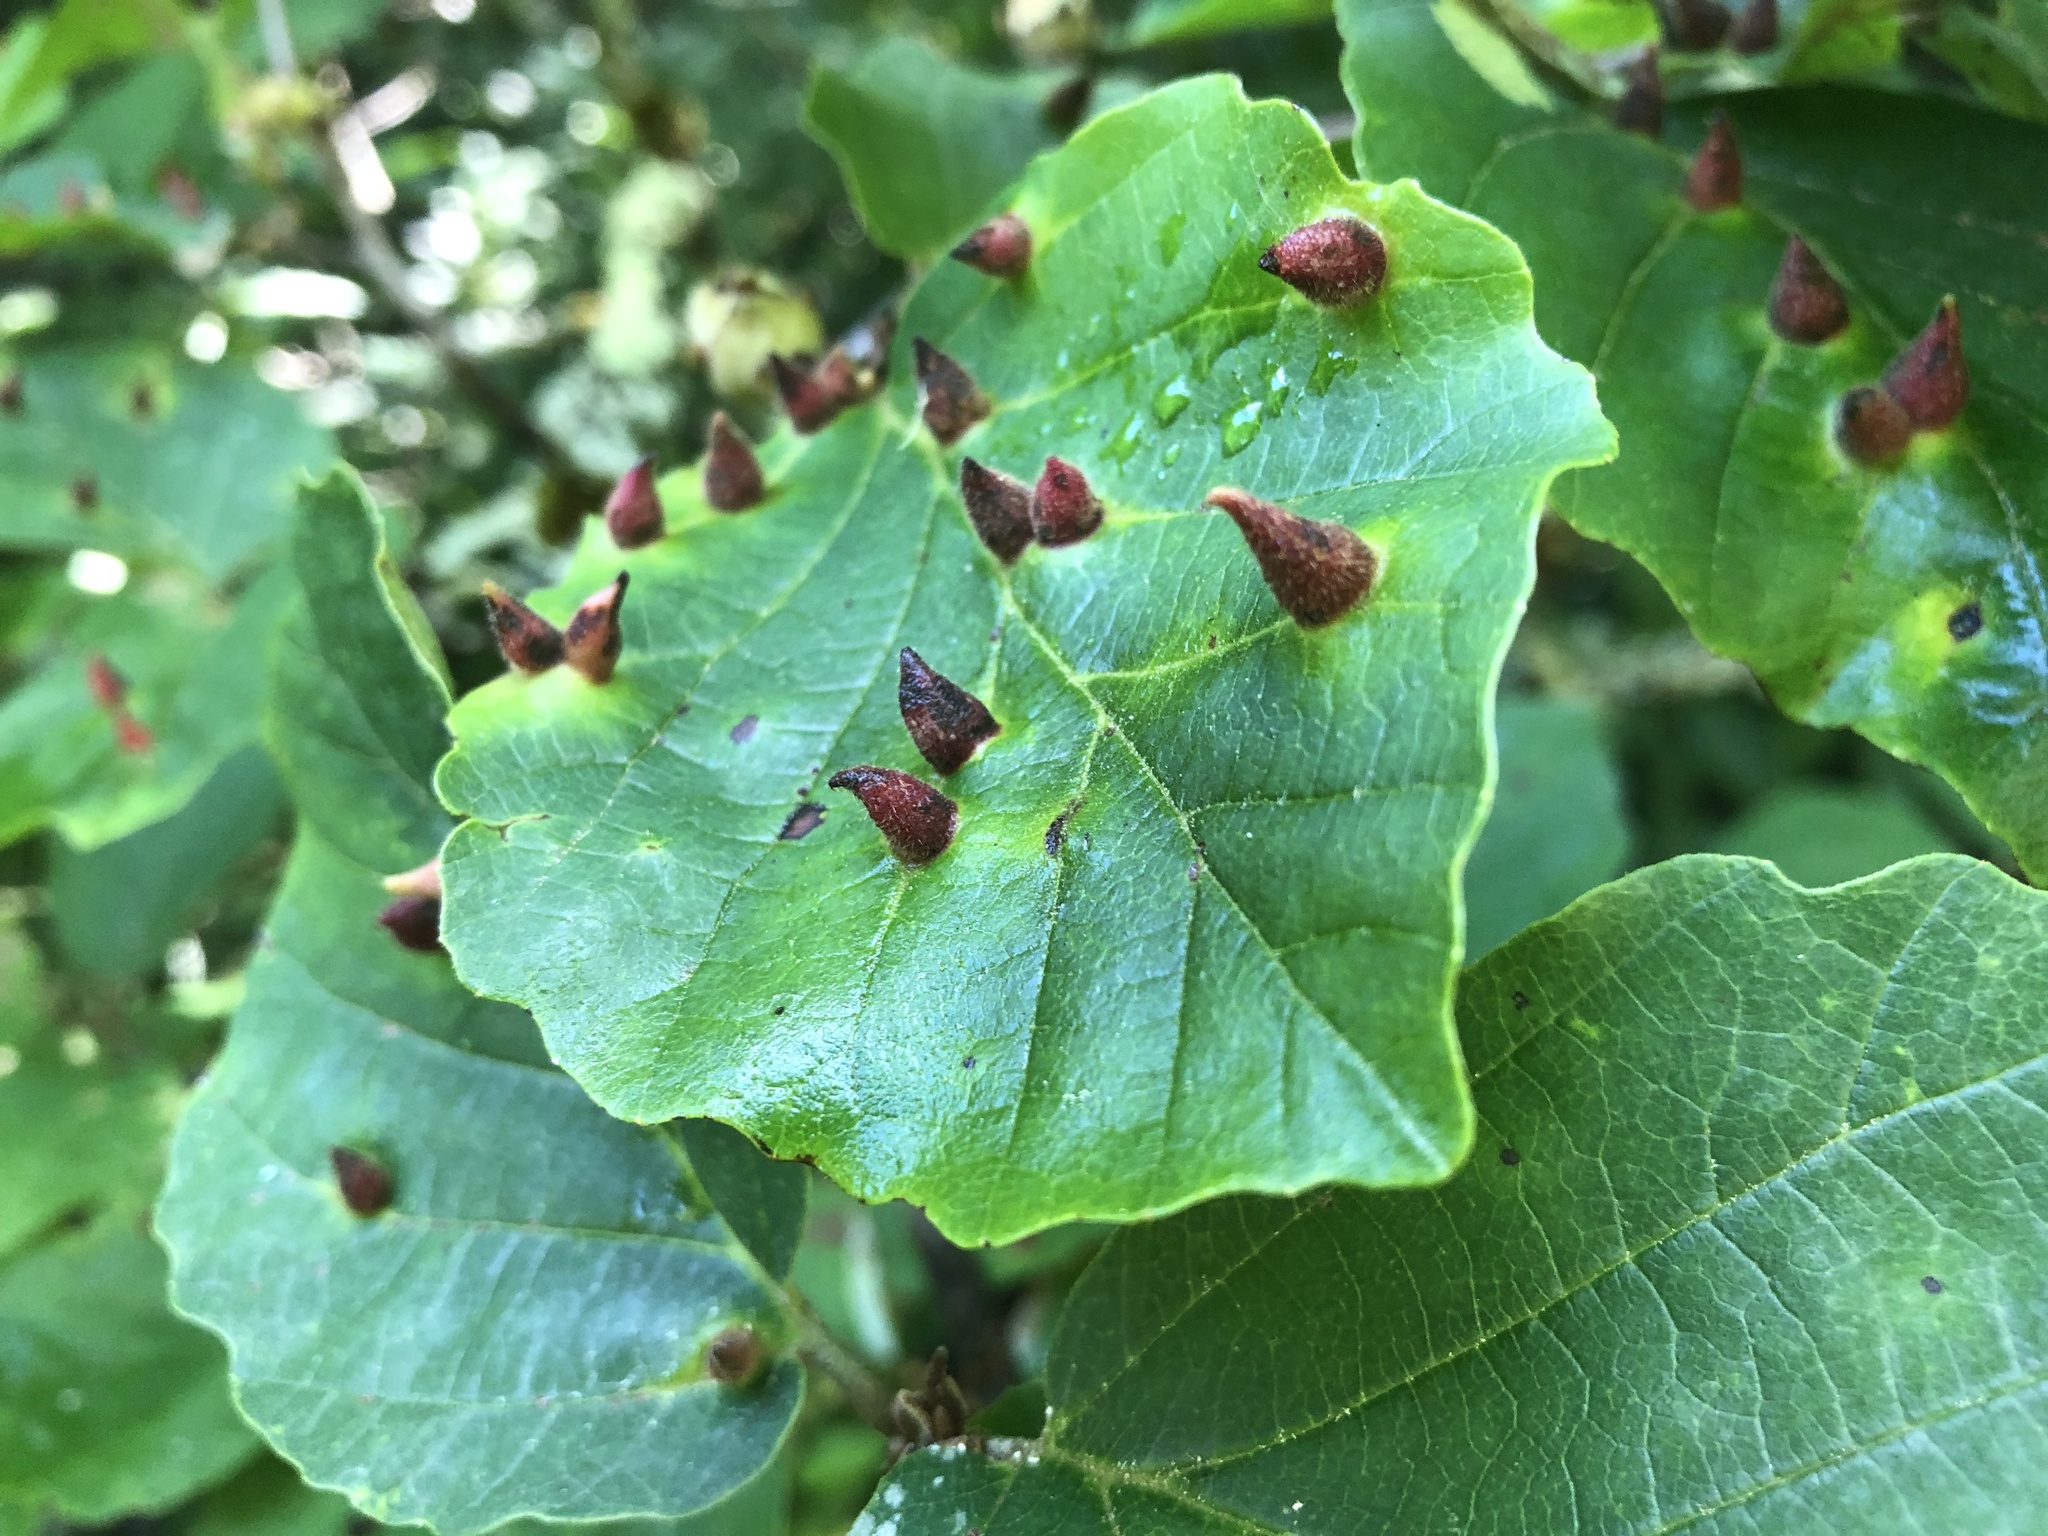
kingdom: Animalia
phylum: Arthropoda
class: Insecta
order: Hemiptera
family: Aphididae
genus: Hormaphis
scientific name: Hormaphis hamamelidis
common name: Witch-hazel cone gall aphid
